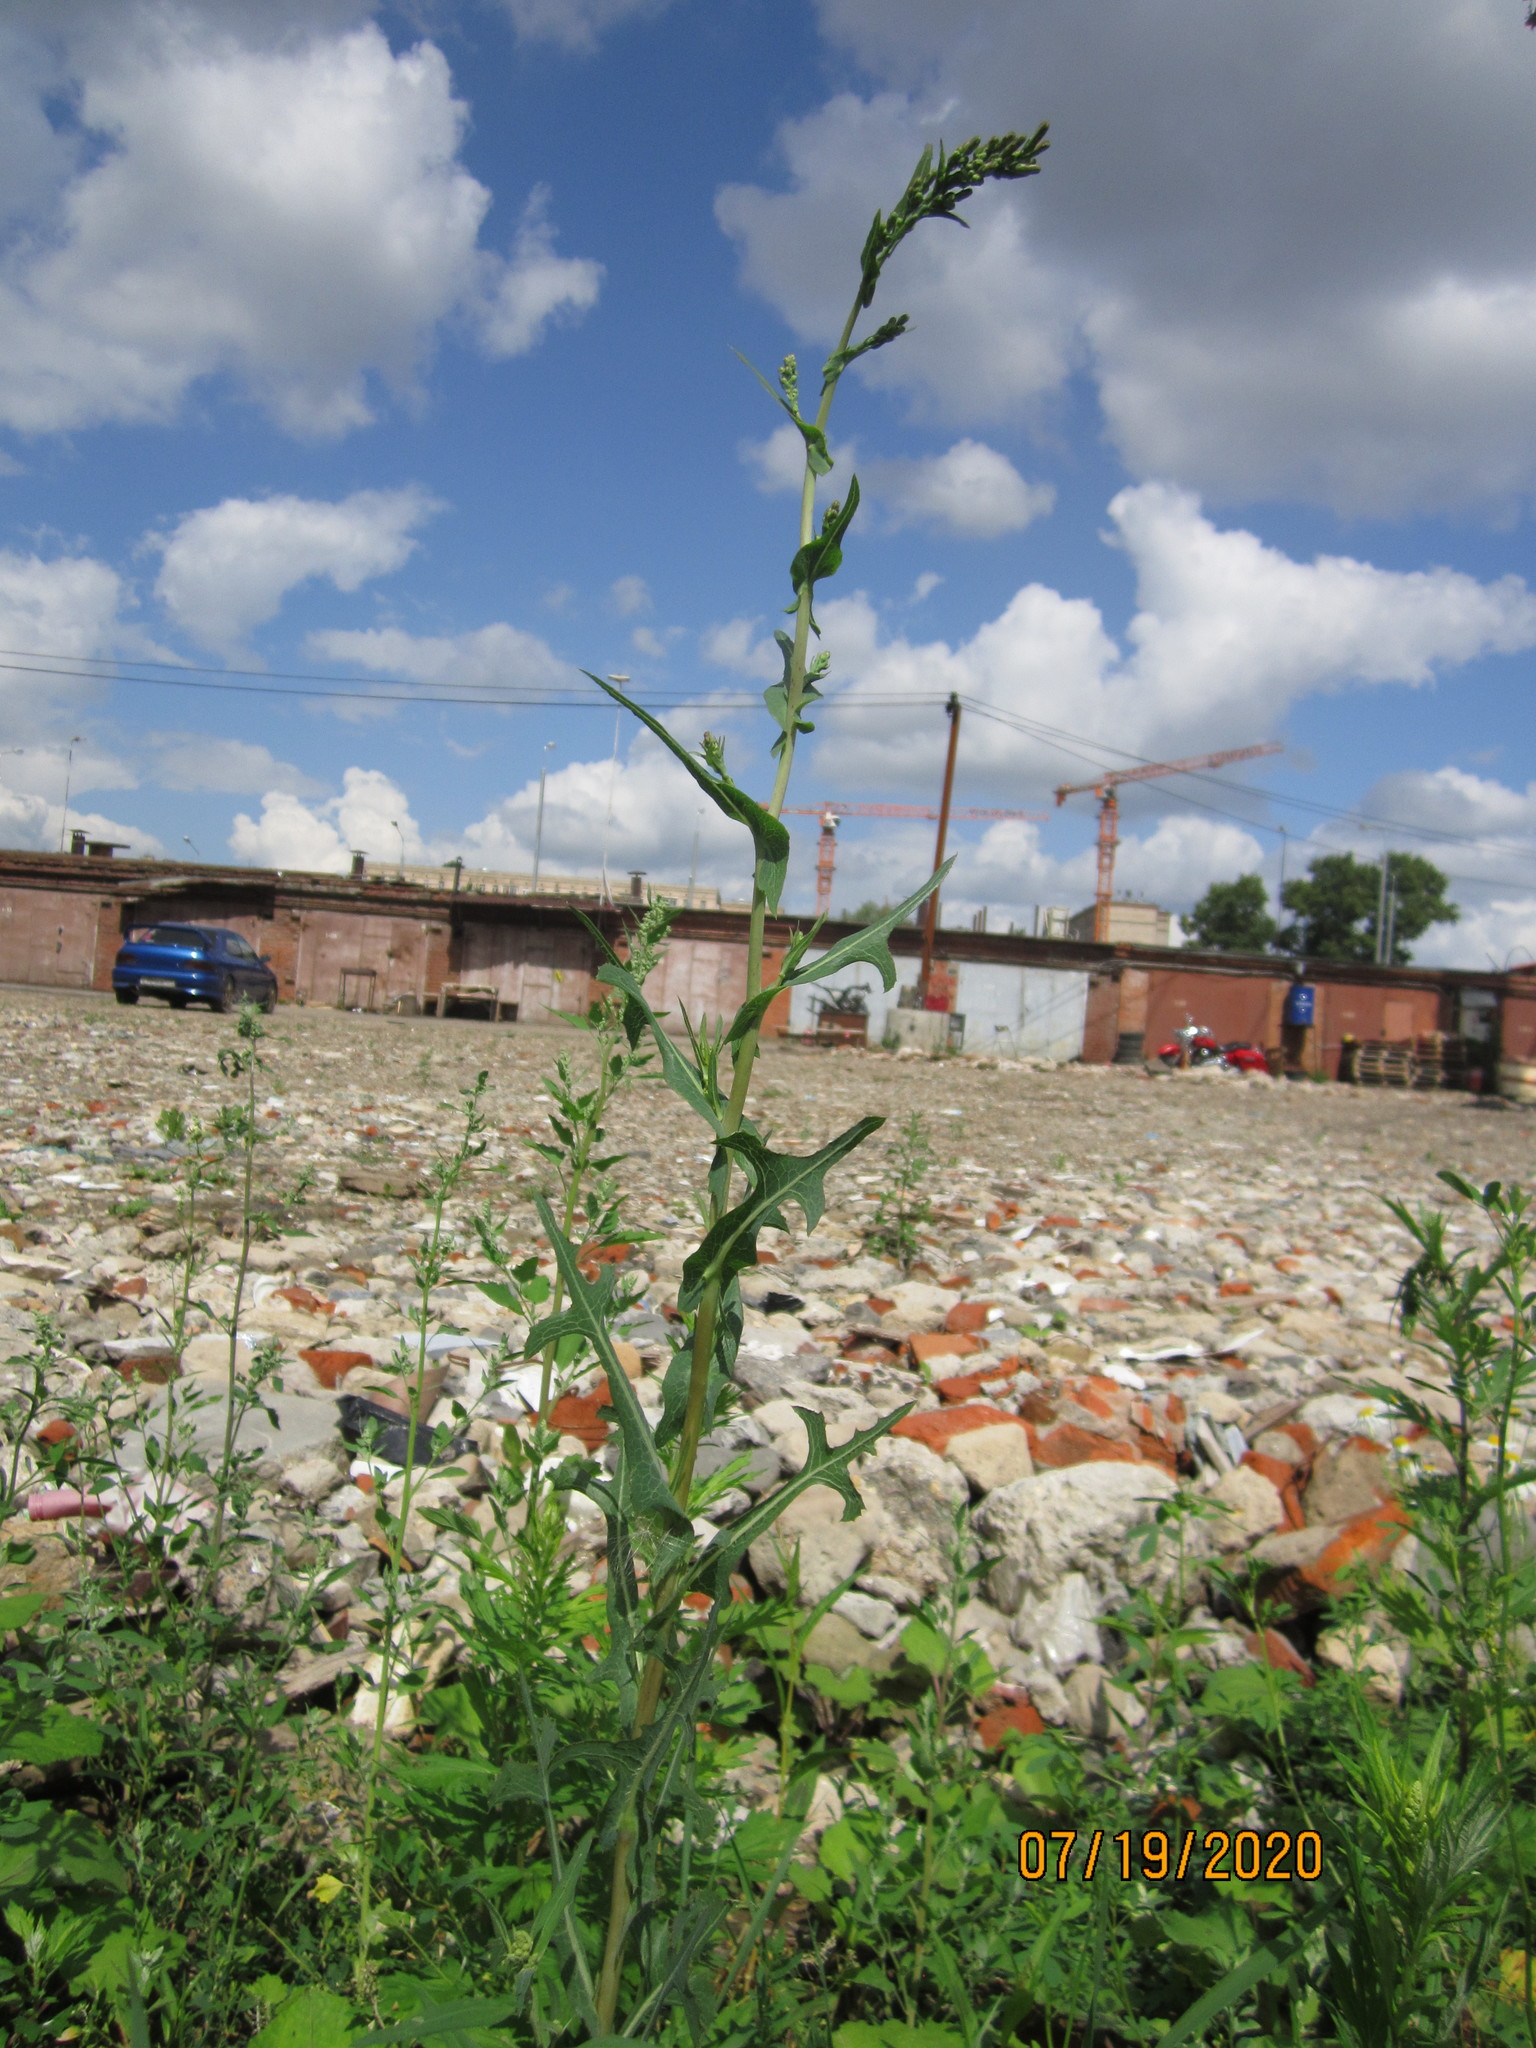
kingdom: Plantae
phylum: Tracheophyta
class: Magnoliopsida
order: Asterales
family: Asteraceae
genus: Lactuca
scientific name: Lactuca serriola
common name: Prickly lettuce
